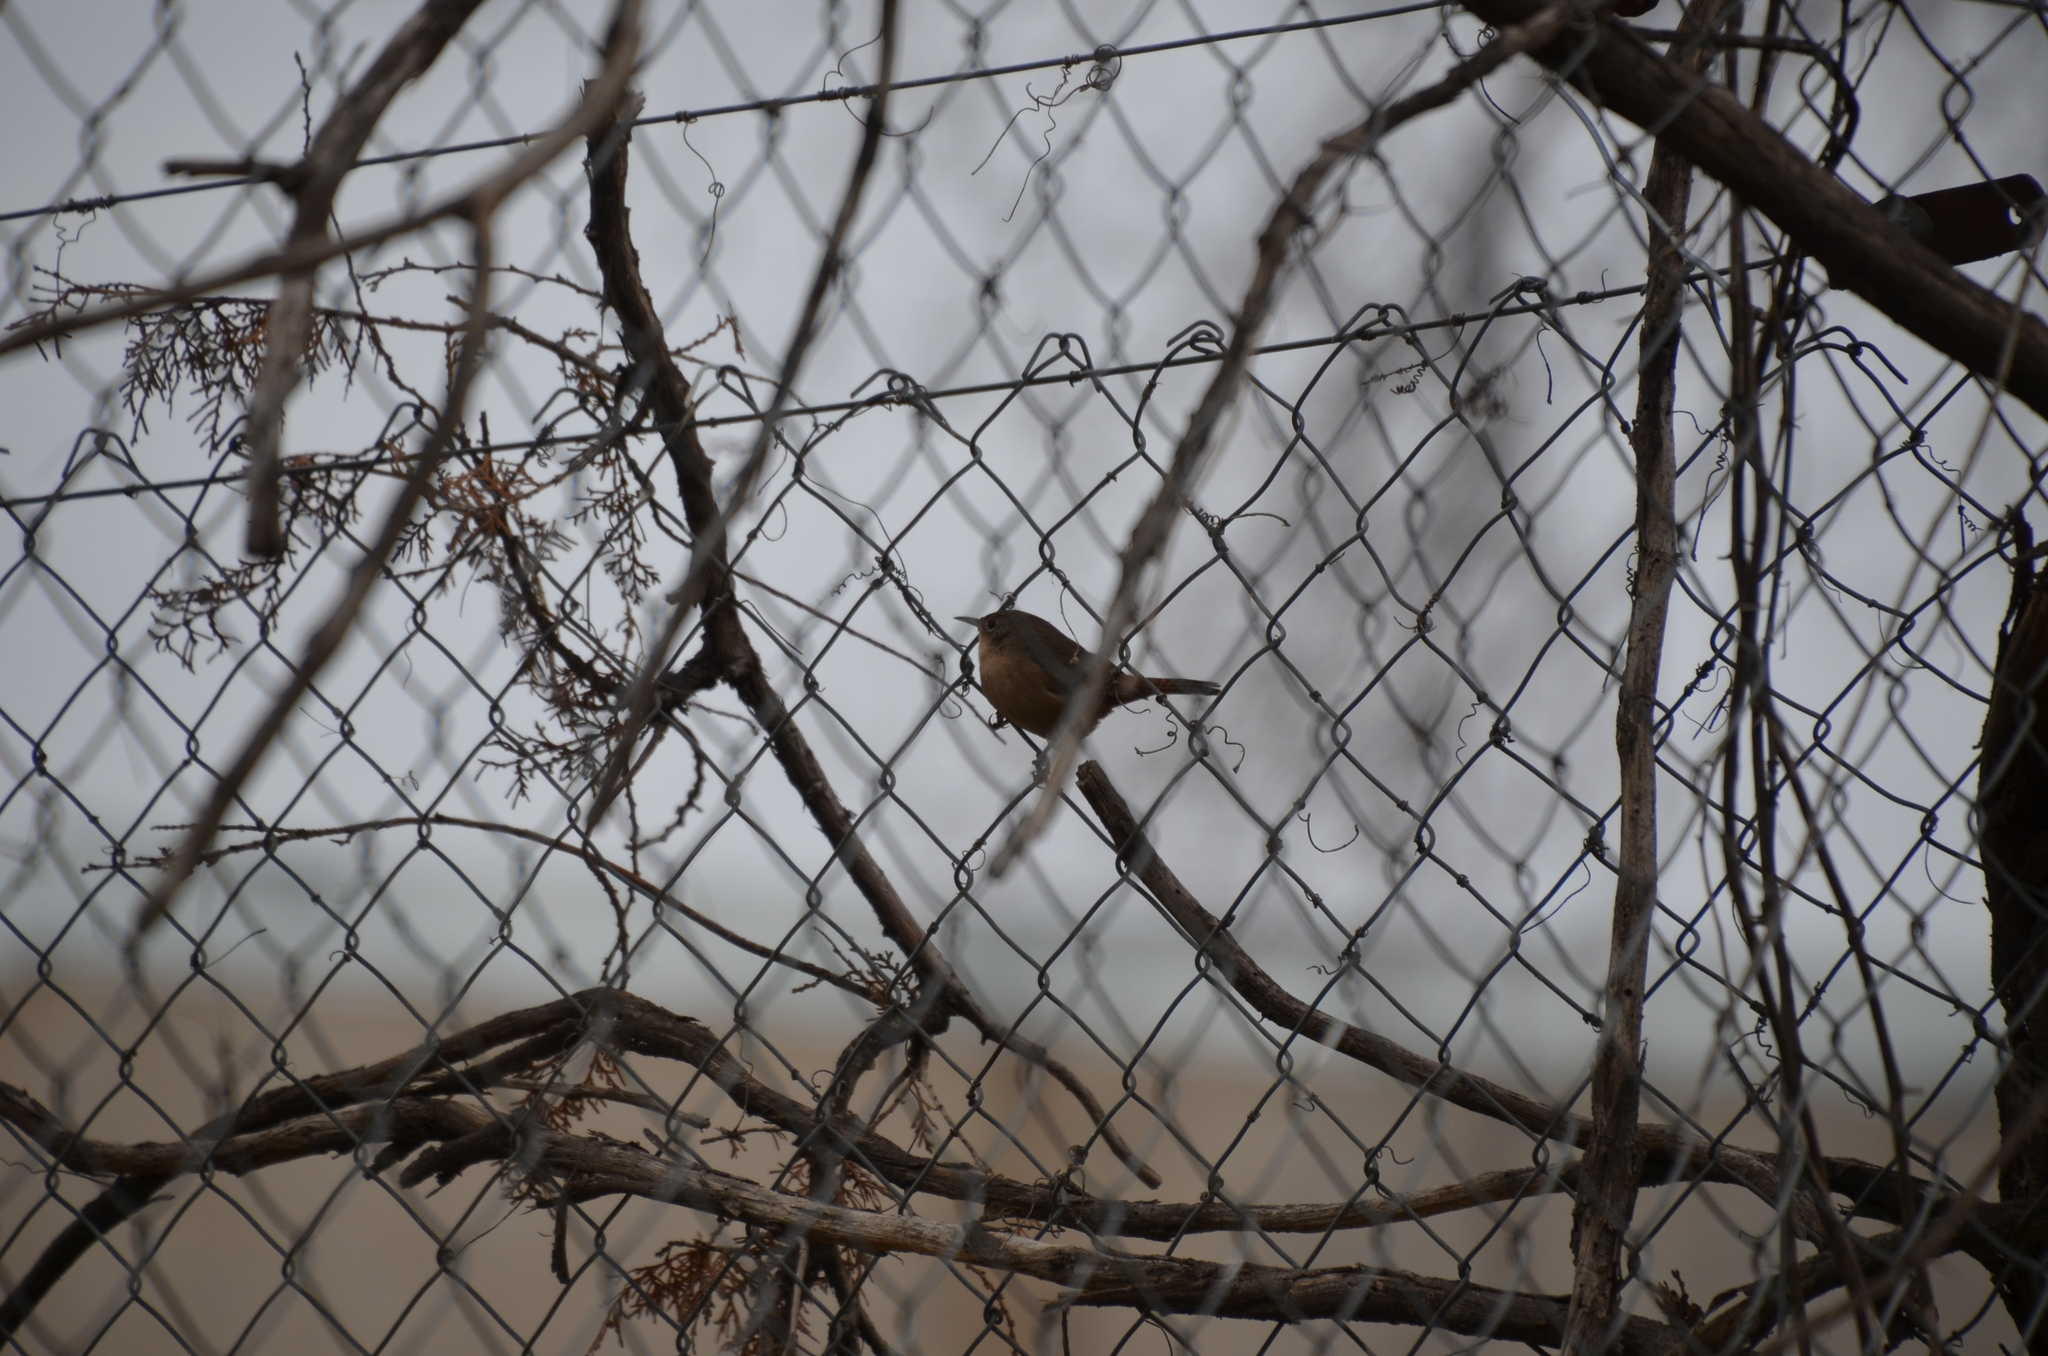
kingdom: Animalia
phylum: Chordata
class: Aves
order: Passeriformes
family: Troglodytidae
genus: Troglodytes
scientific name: Troglodytes aedon
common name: House wren
